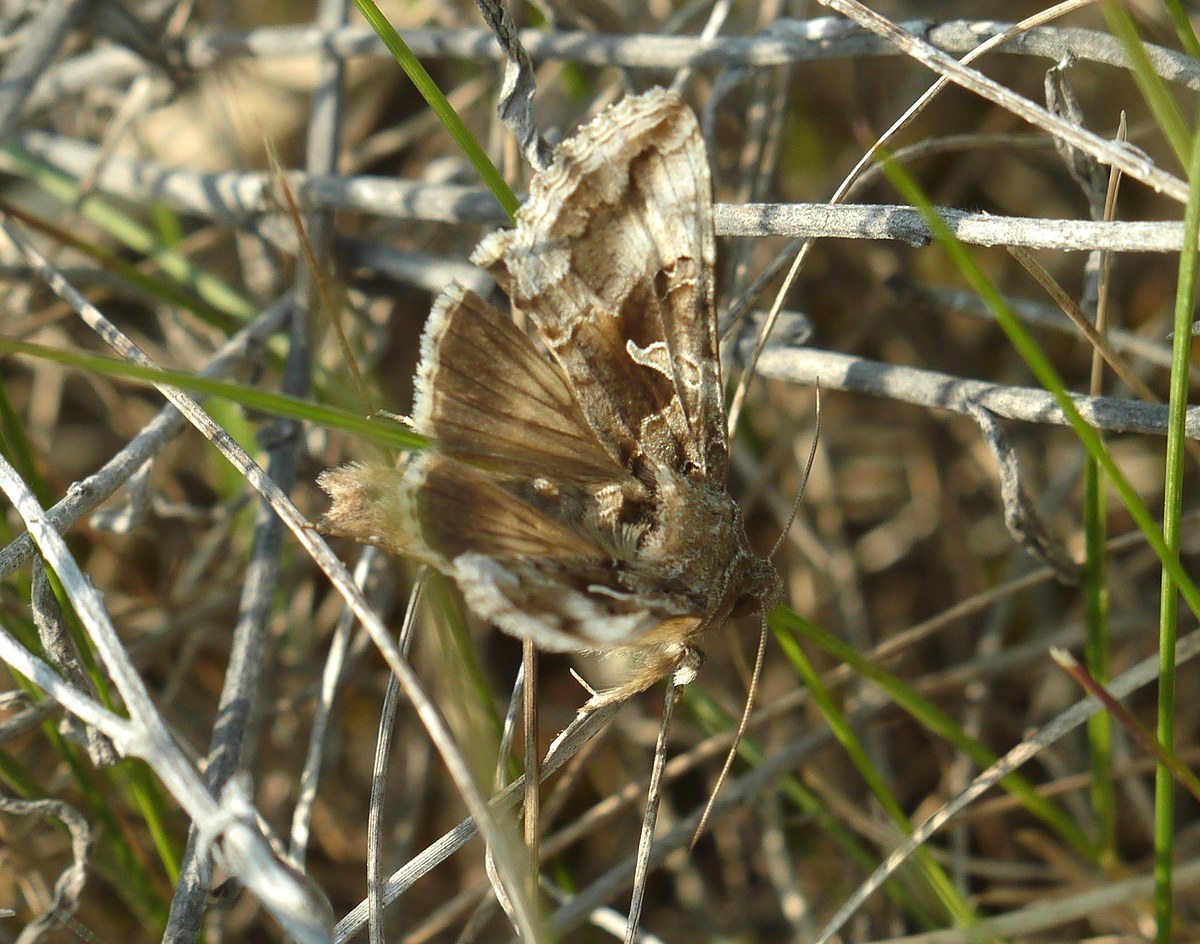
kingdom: Animalia
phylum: Arthropoda
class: Insecta
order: Lepidoptera
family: Noctuidae
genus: Autographa
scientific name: Autographa gamma
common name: Silver y
